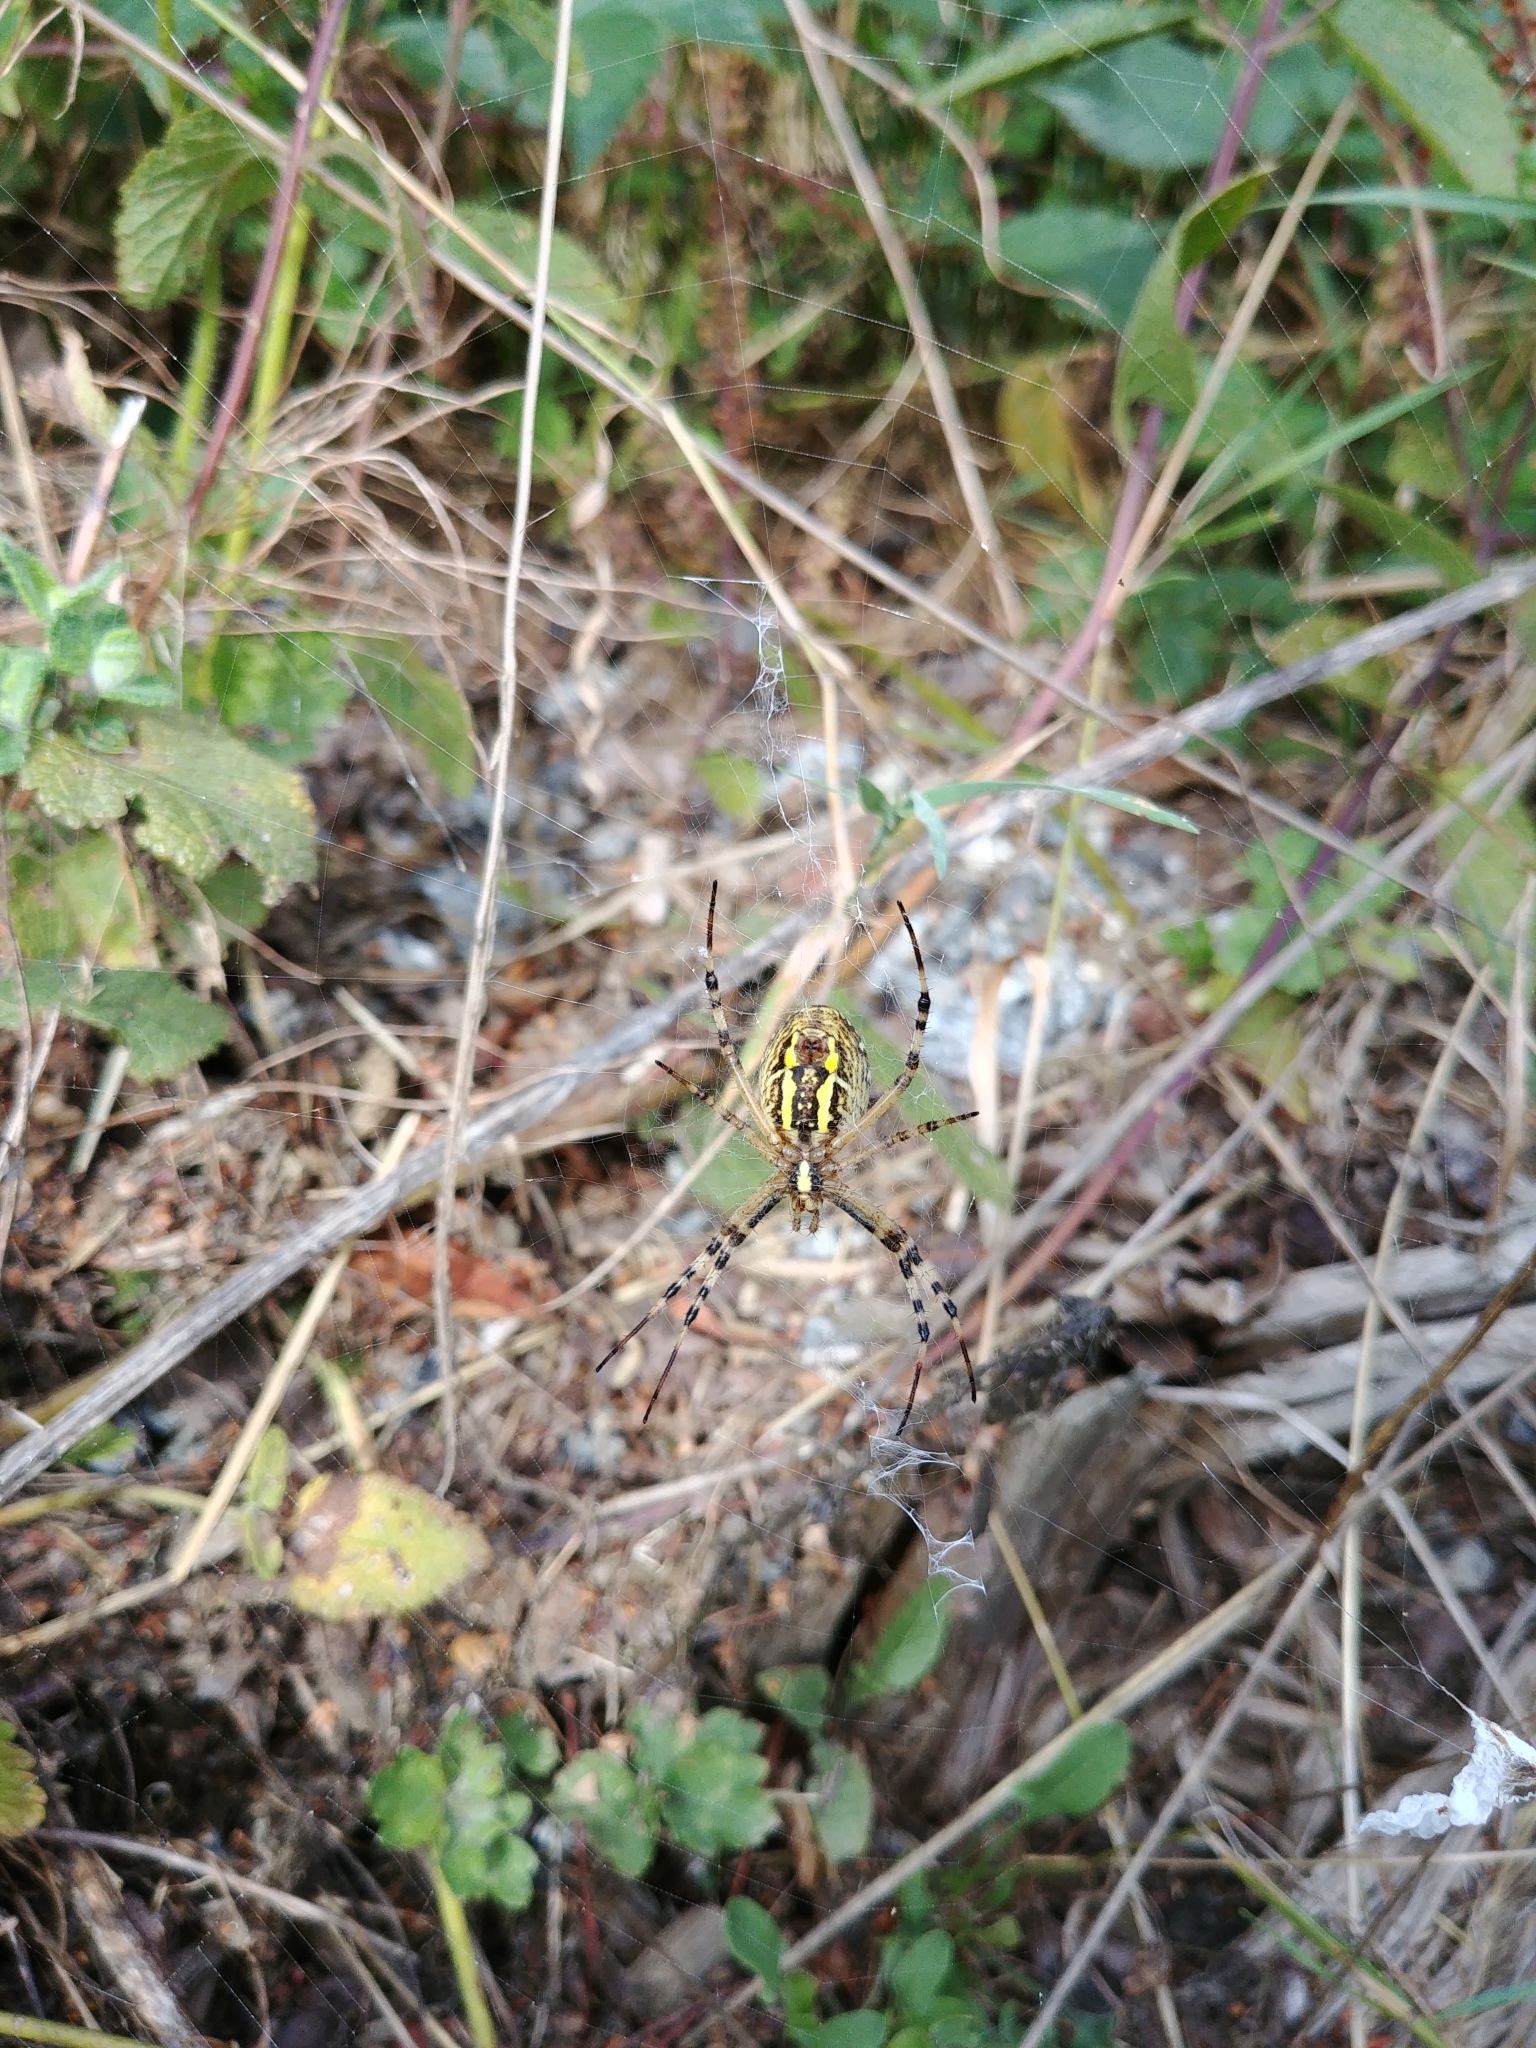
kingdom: Animalia
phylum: Arthropoda
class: Arachnida
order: Araneae
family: Araneidae
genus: Argiope
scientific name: Argiope bruennichi
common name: Wasp spider
